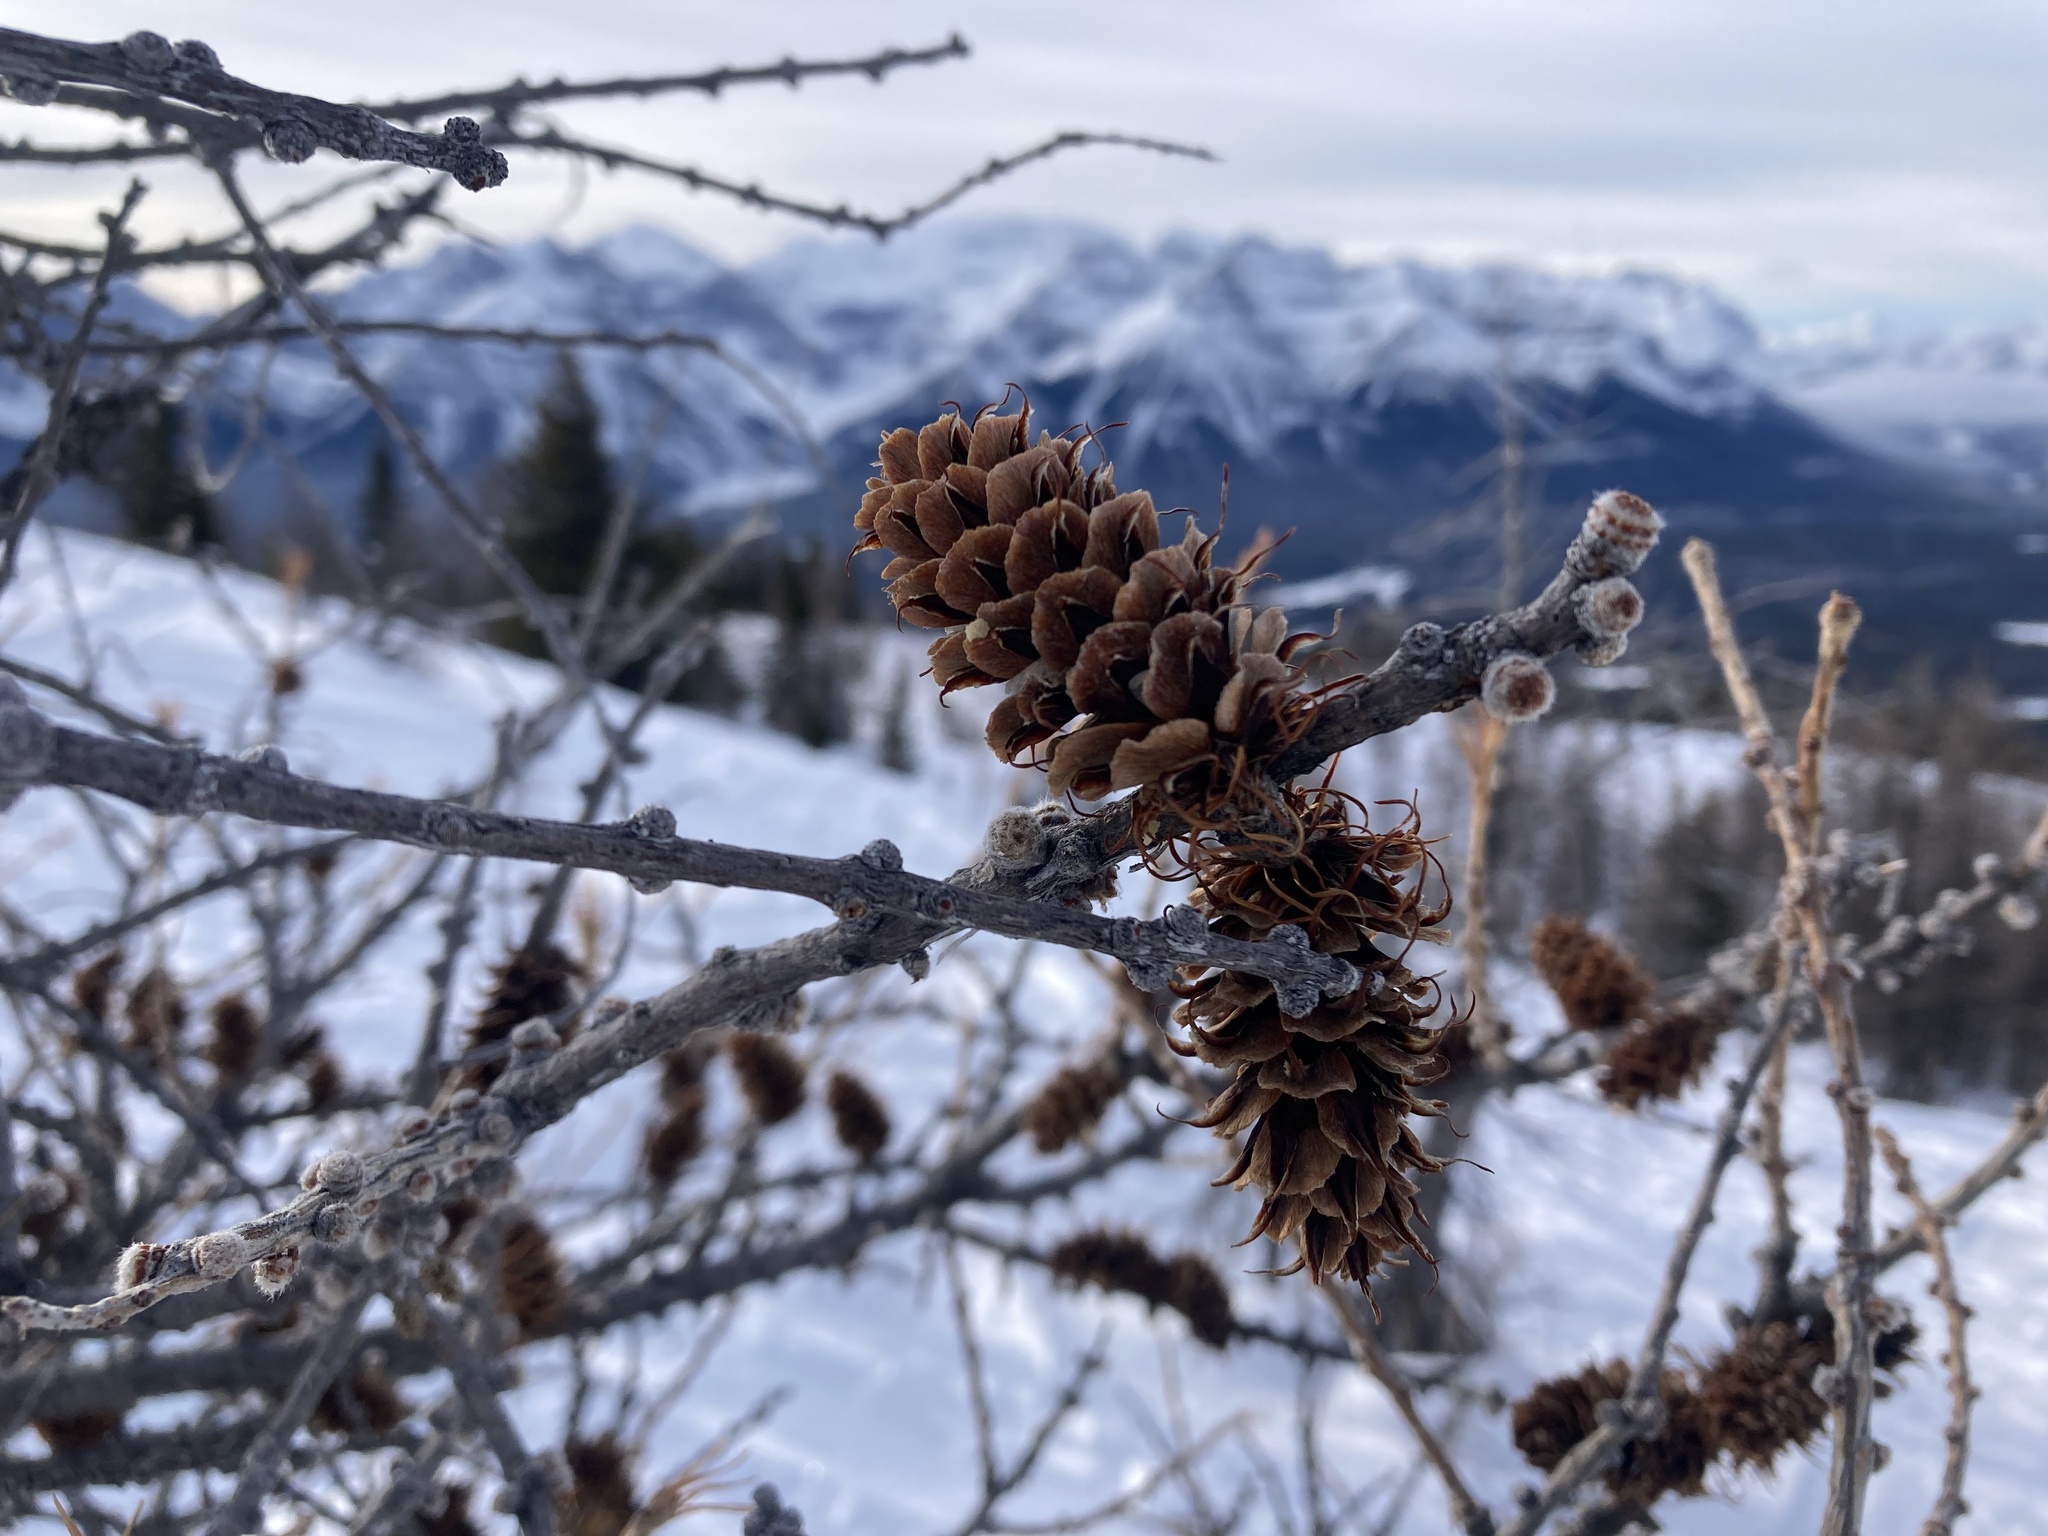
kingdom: Plantae
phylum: Tracheophyta
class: Pinopsida
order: Pinales
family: Pinaceae
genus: Larix
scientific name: Larix lyallii
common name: Alpine larch
